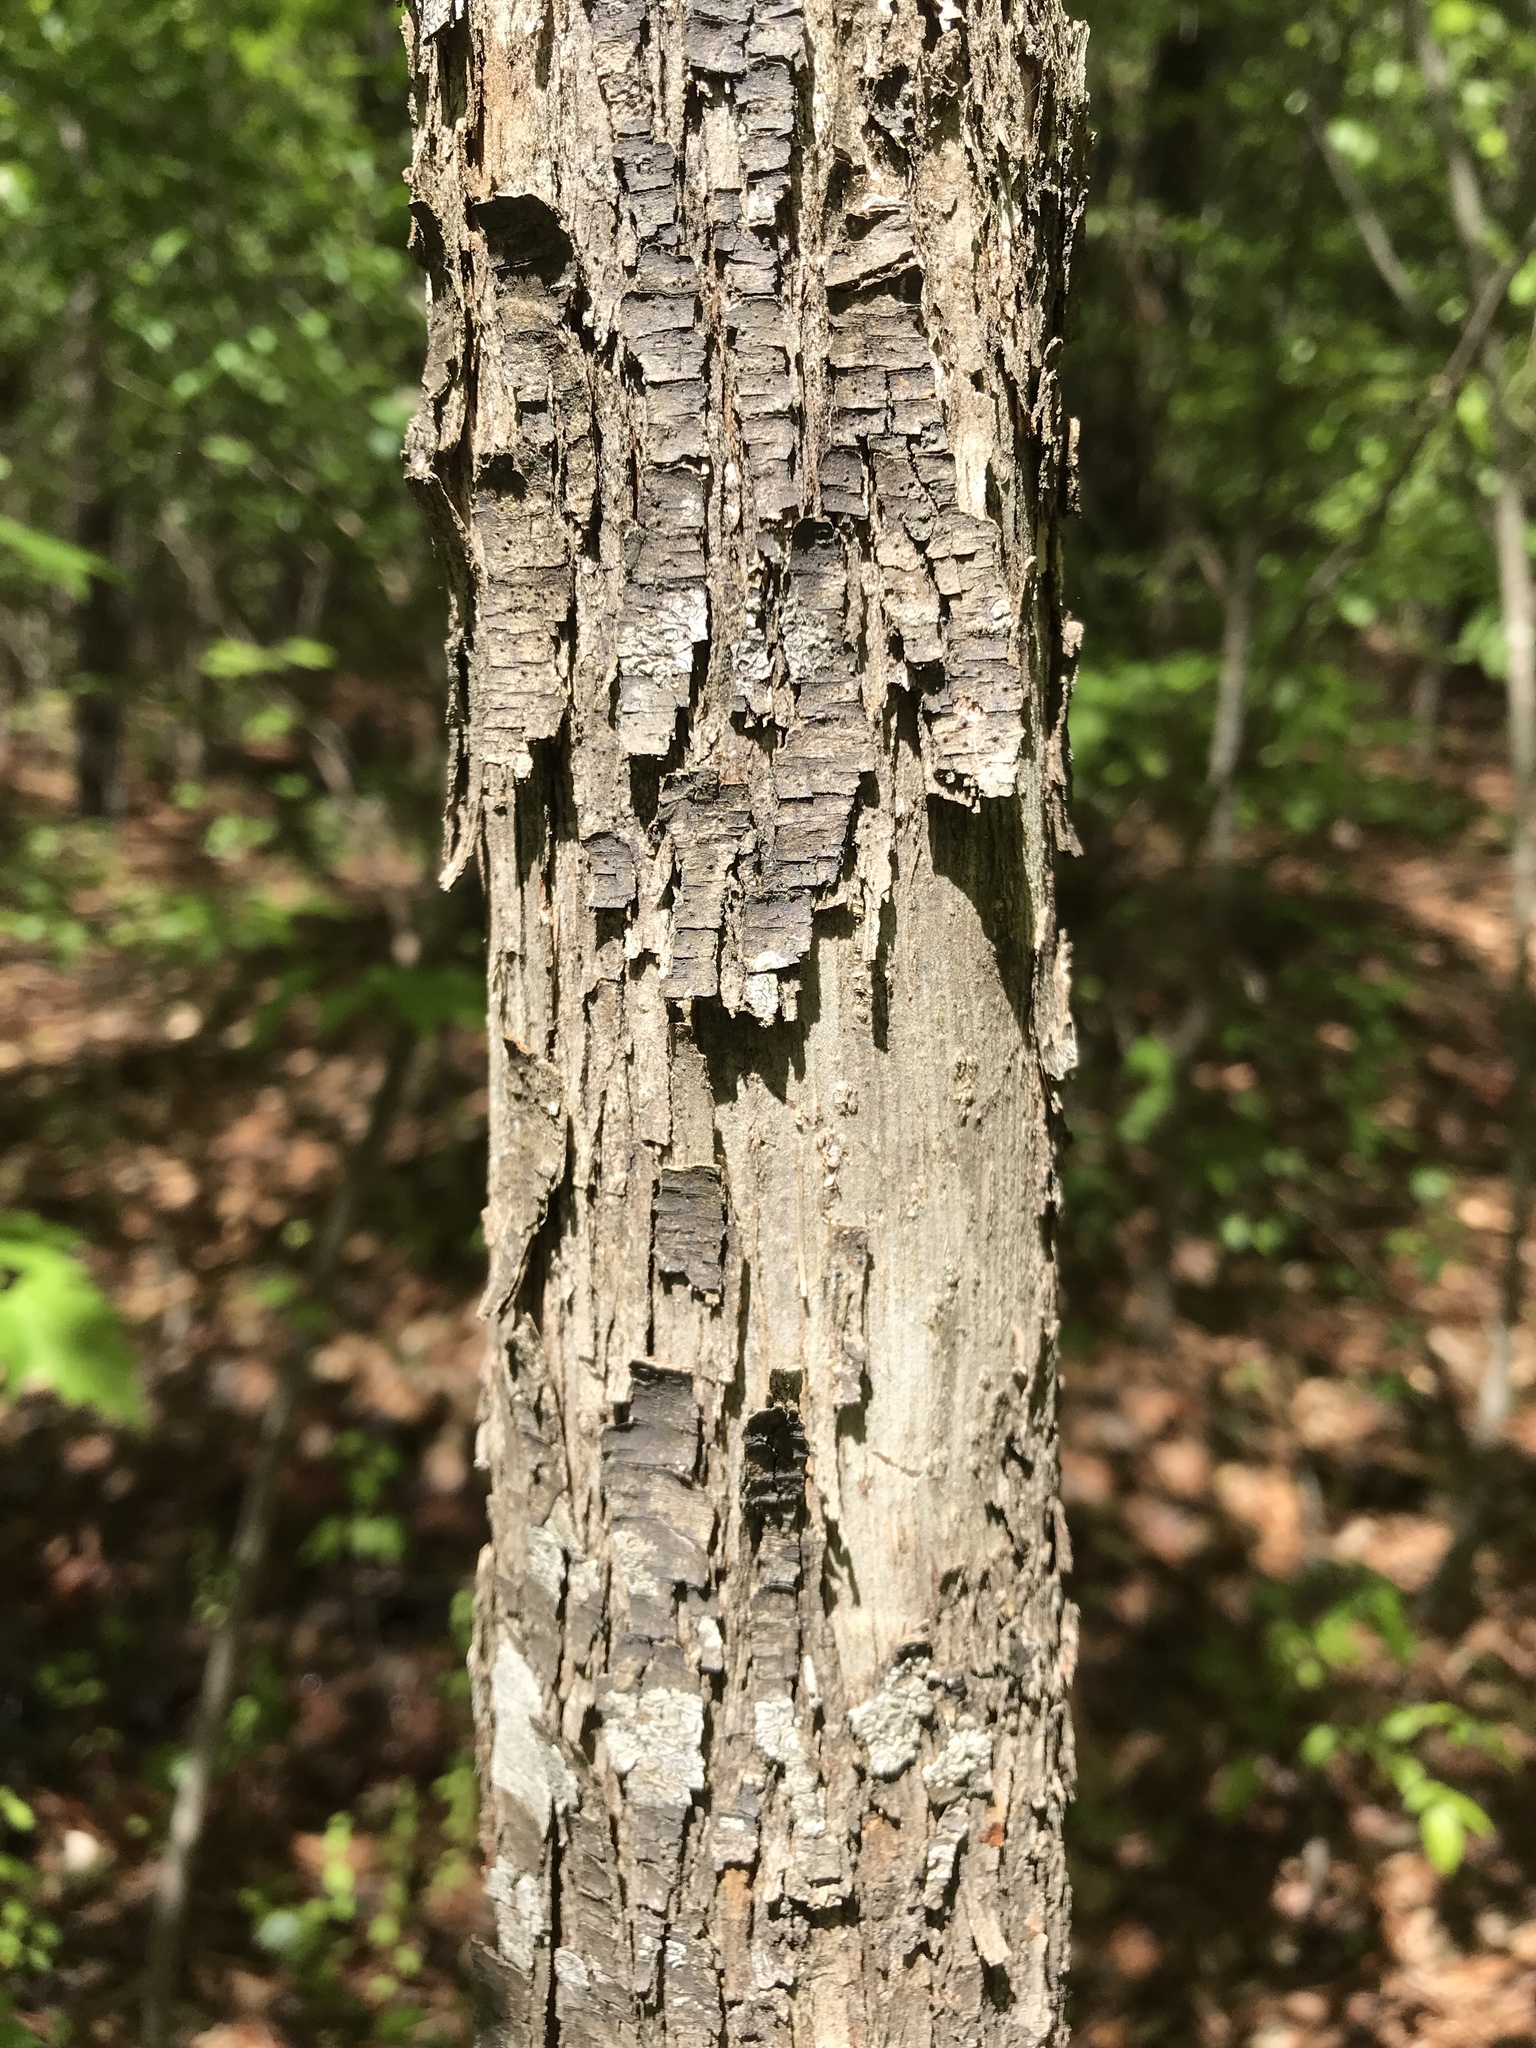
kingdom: Plantae
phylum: Tracheophyta
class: Magnoliopsida
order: Fagales
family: Betulaceae
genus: Ostrya
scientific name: Ostrya virginiana
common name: Ironwood
